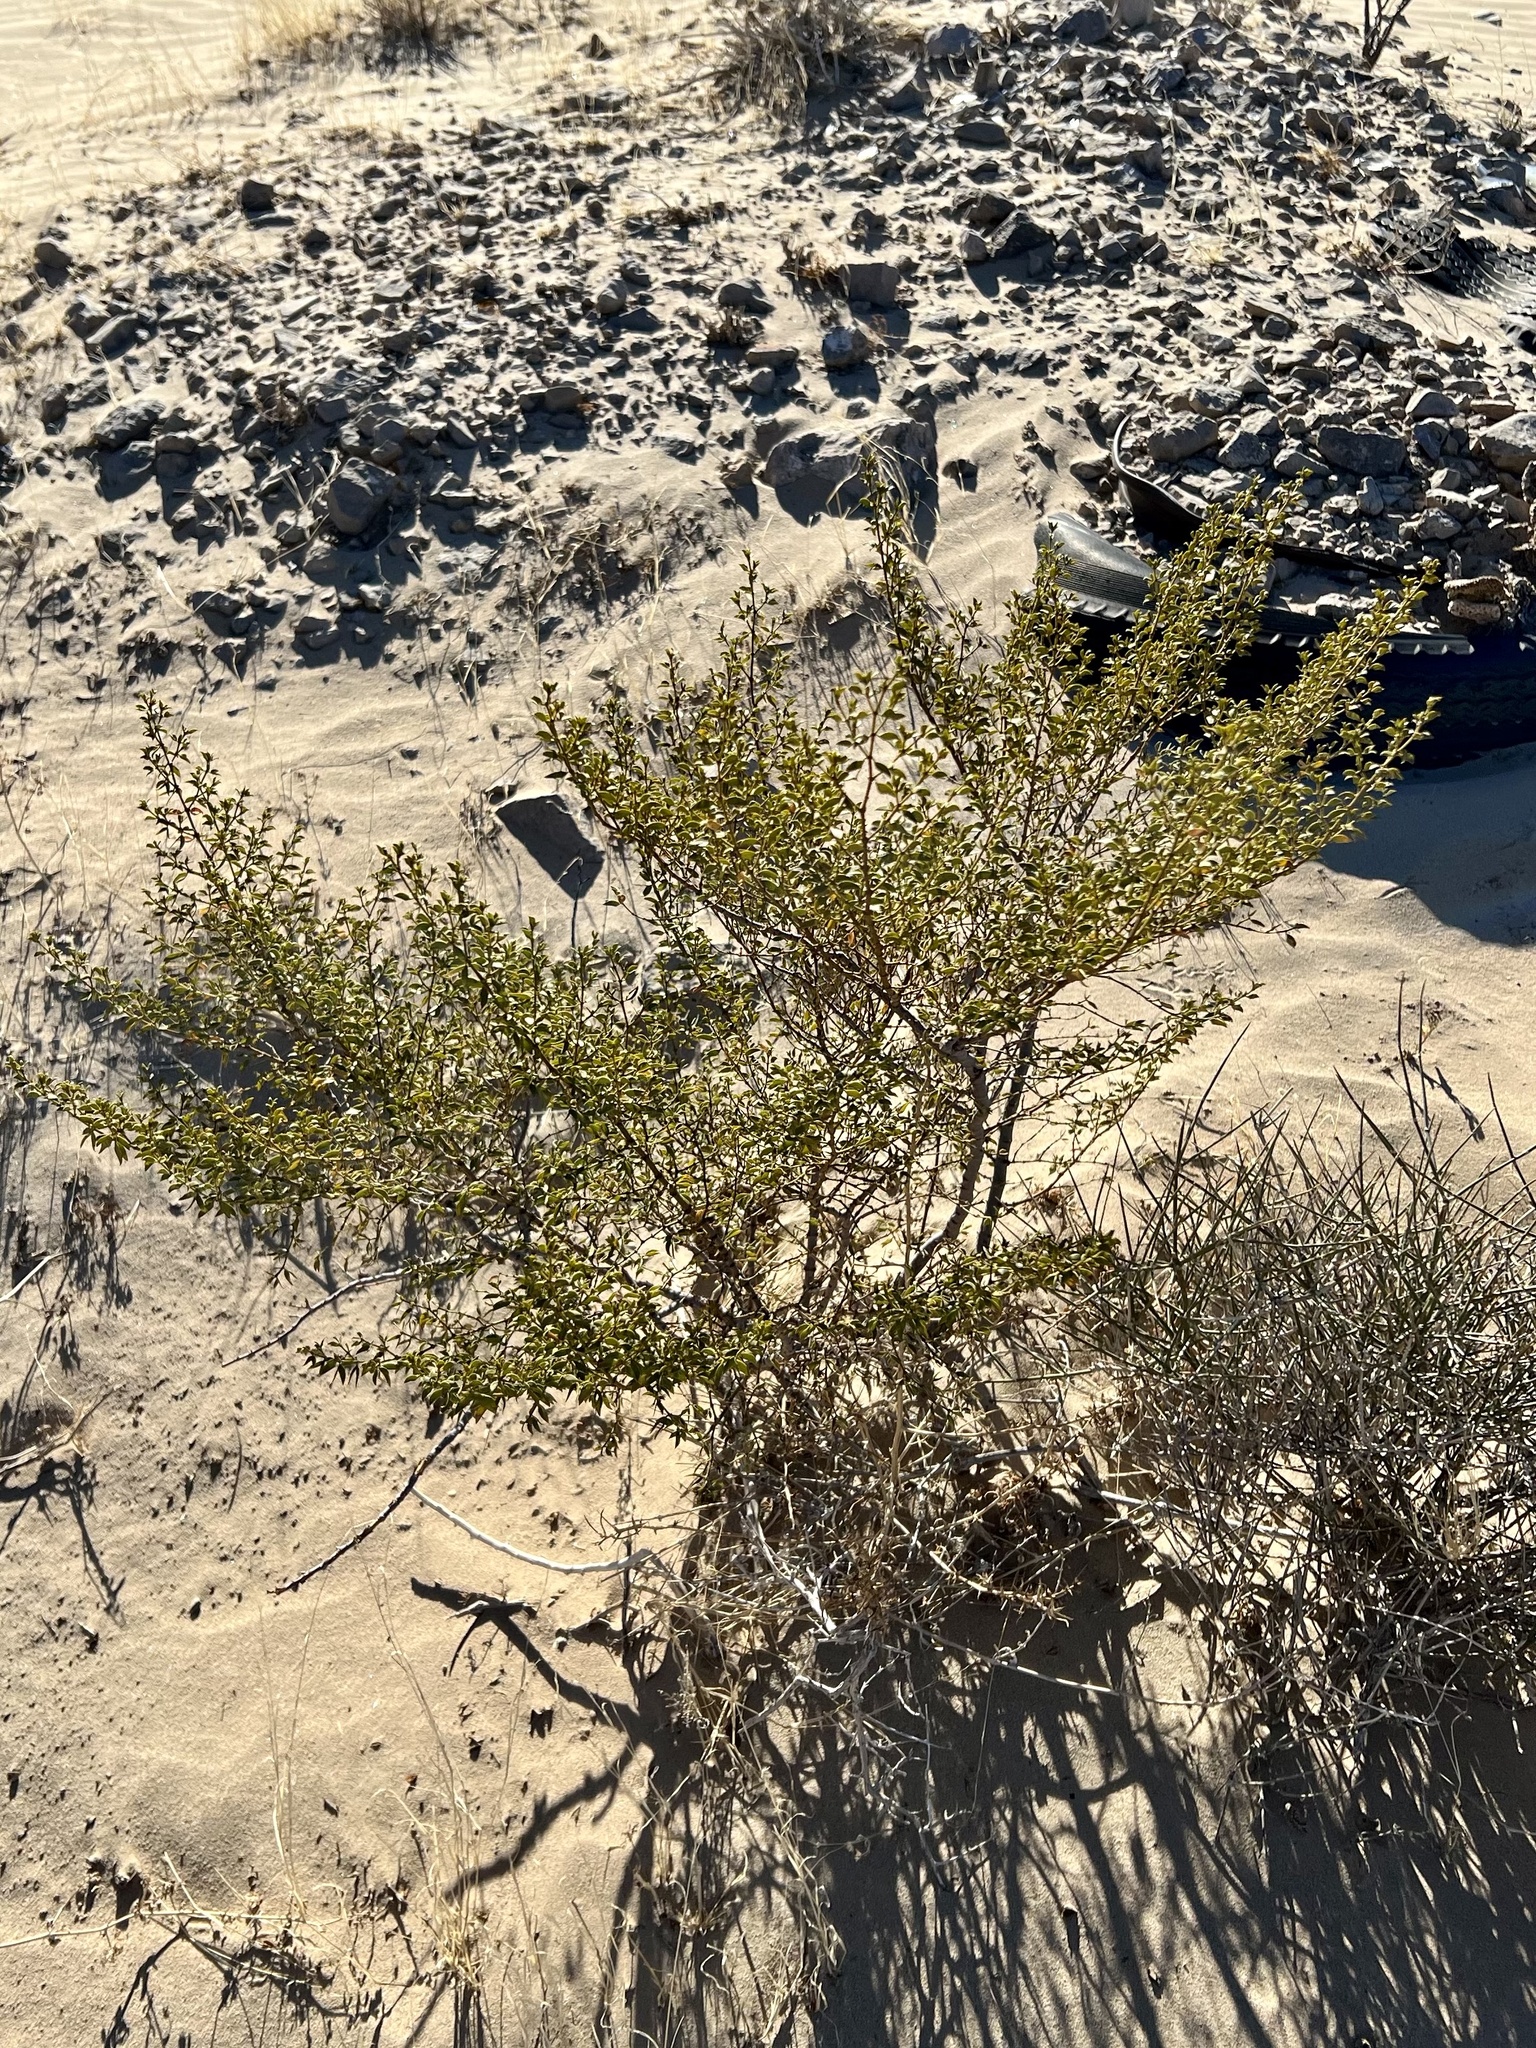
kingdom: Plantae
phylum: Tracheophyta
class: Magnoliopsida
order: Zygophyllales
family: Zygophyllaceae
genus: Larrea
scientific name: Larrea tridentata
